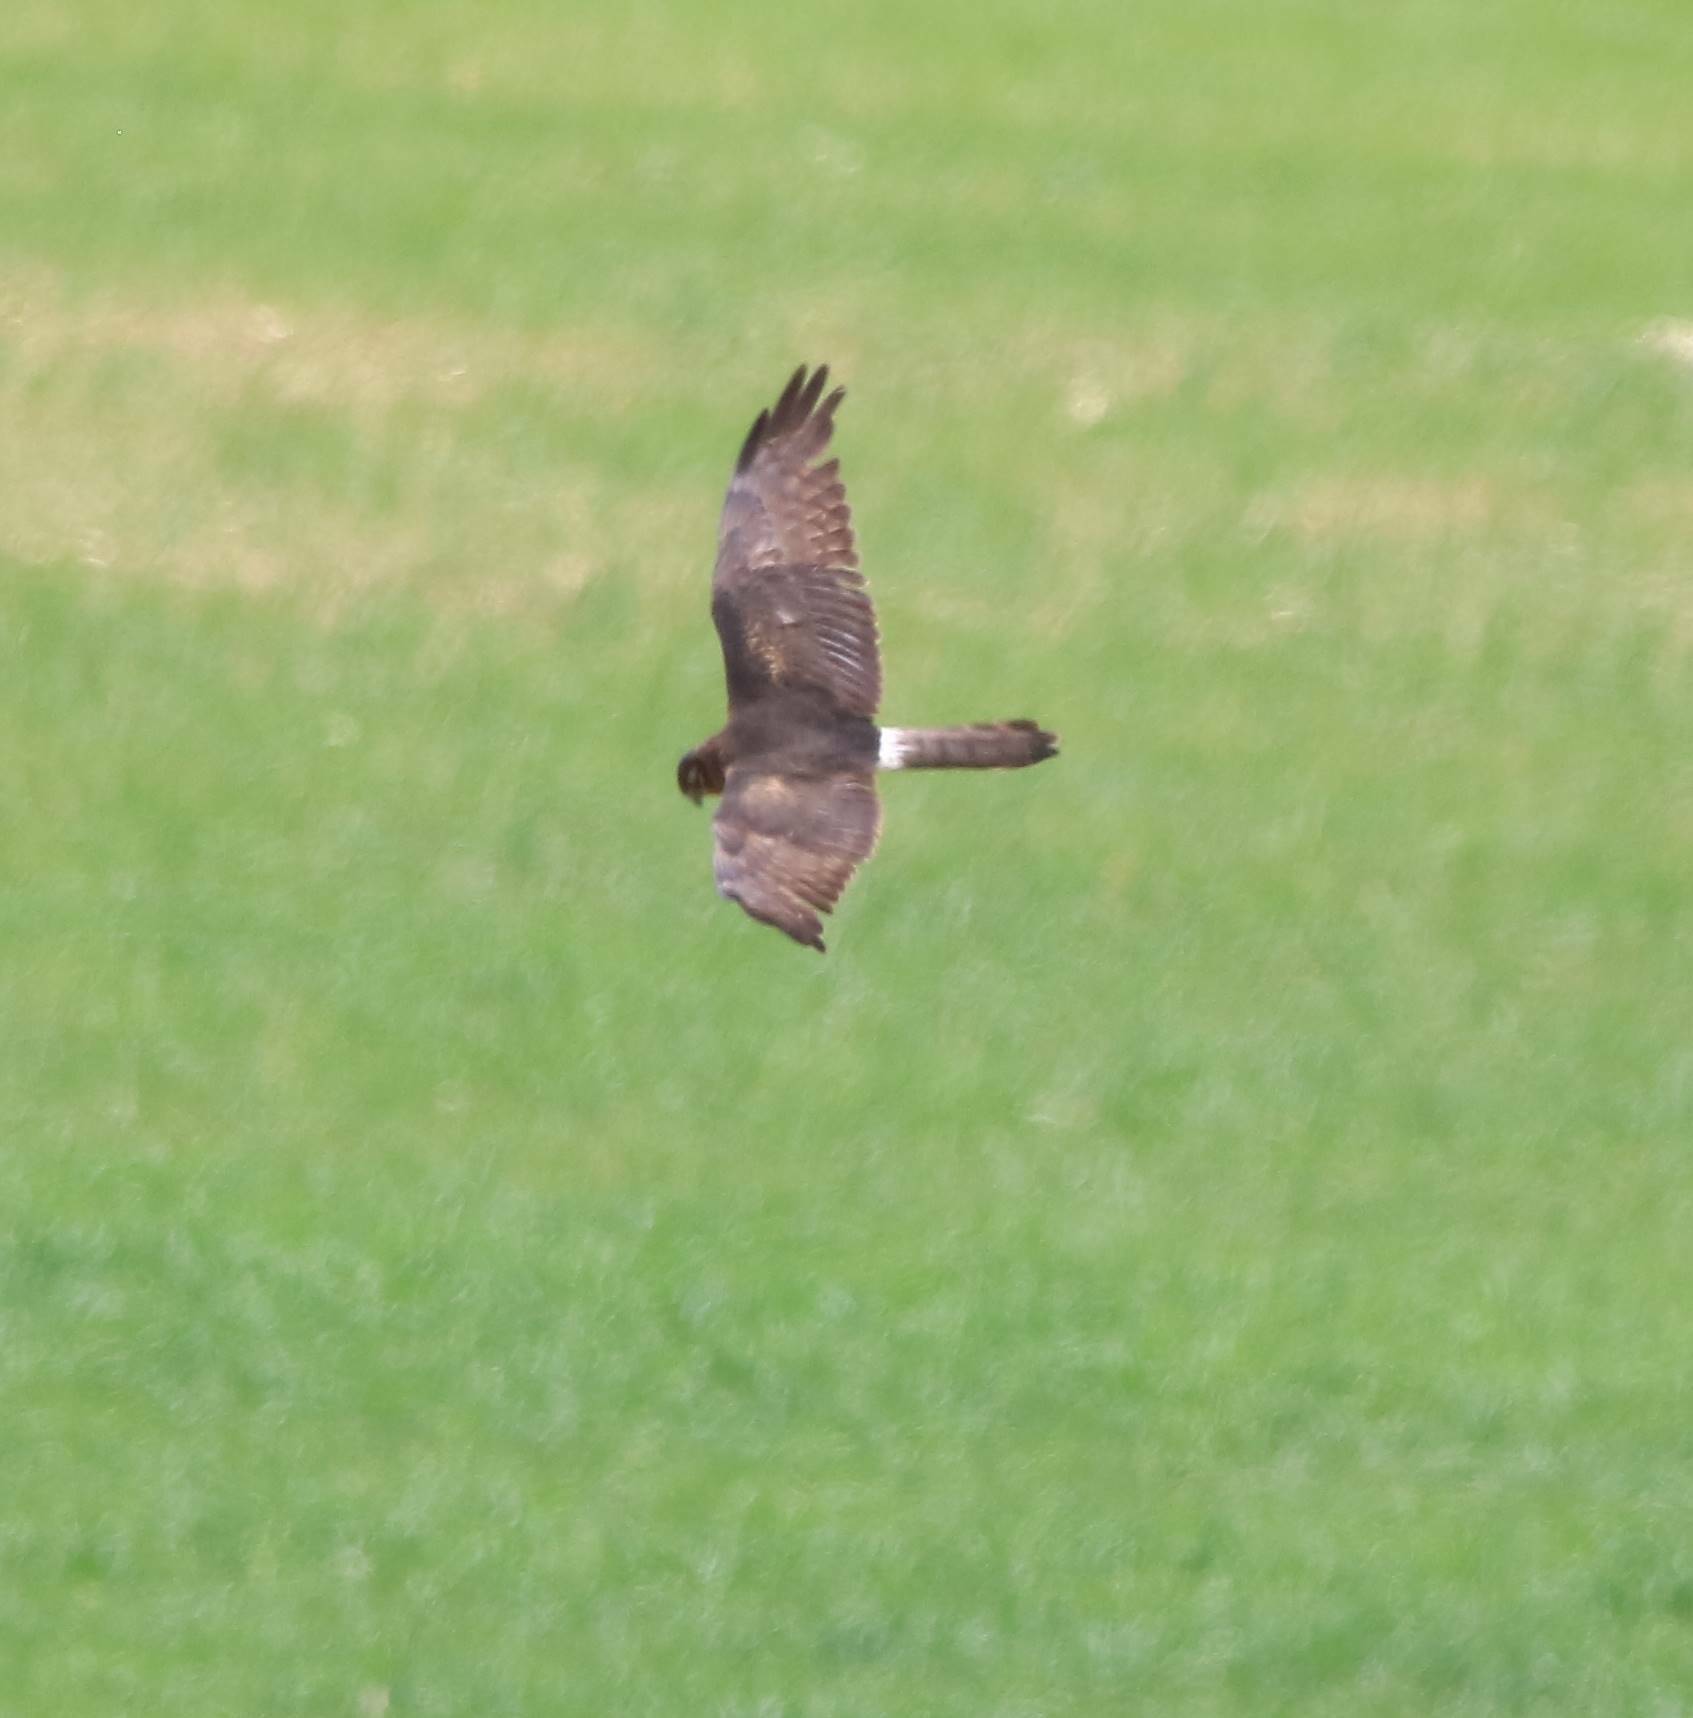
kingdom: Animalia
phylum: Chordata
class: Aves
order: Accipitriformes
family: Accipitridae
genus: Circus
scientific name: Circus pygargus
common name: Montagu's harrier
